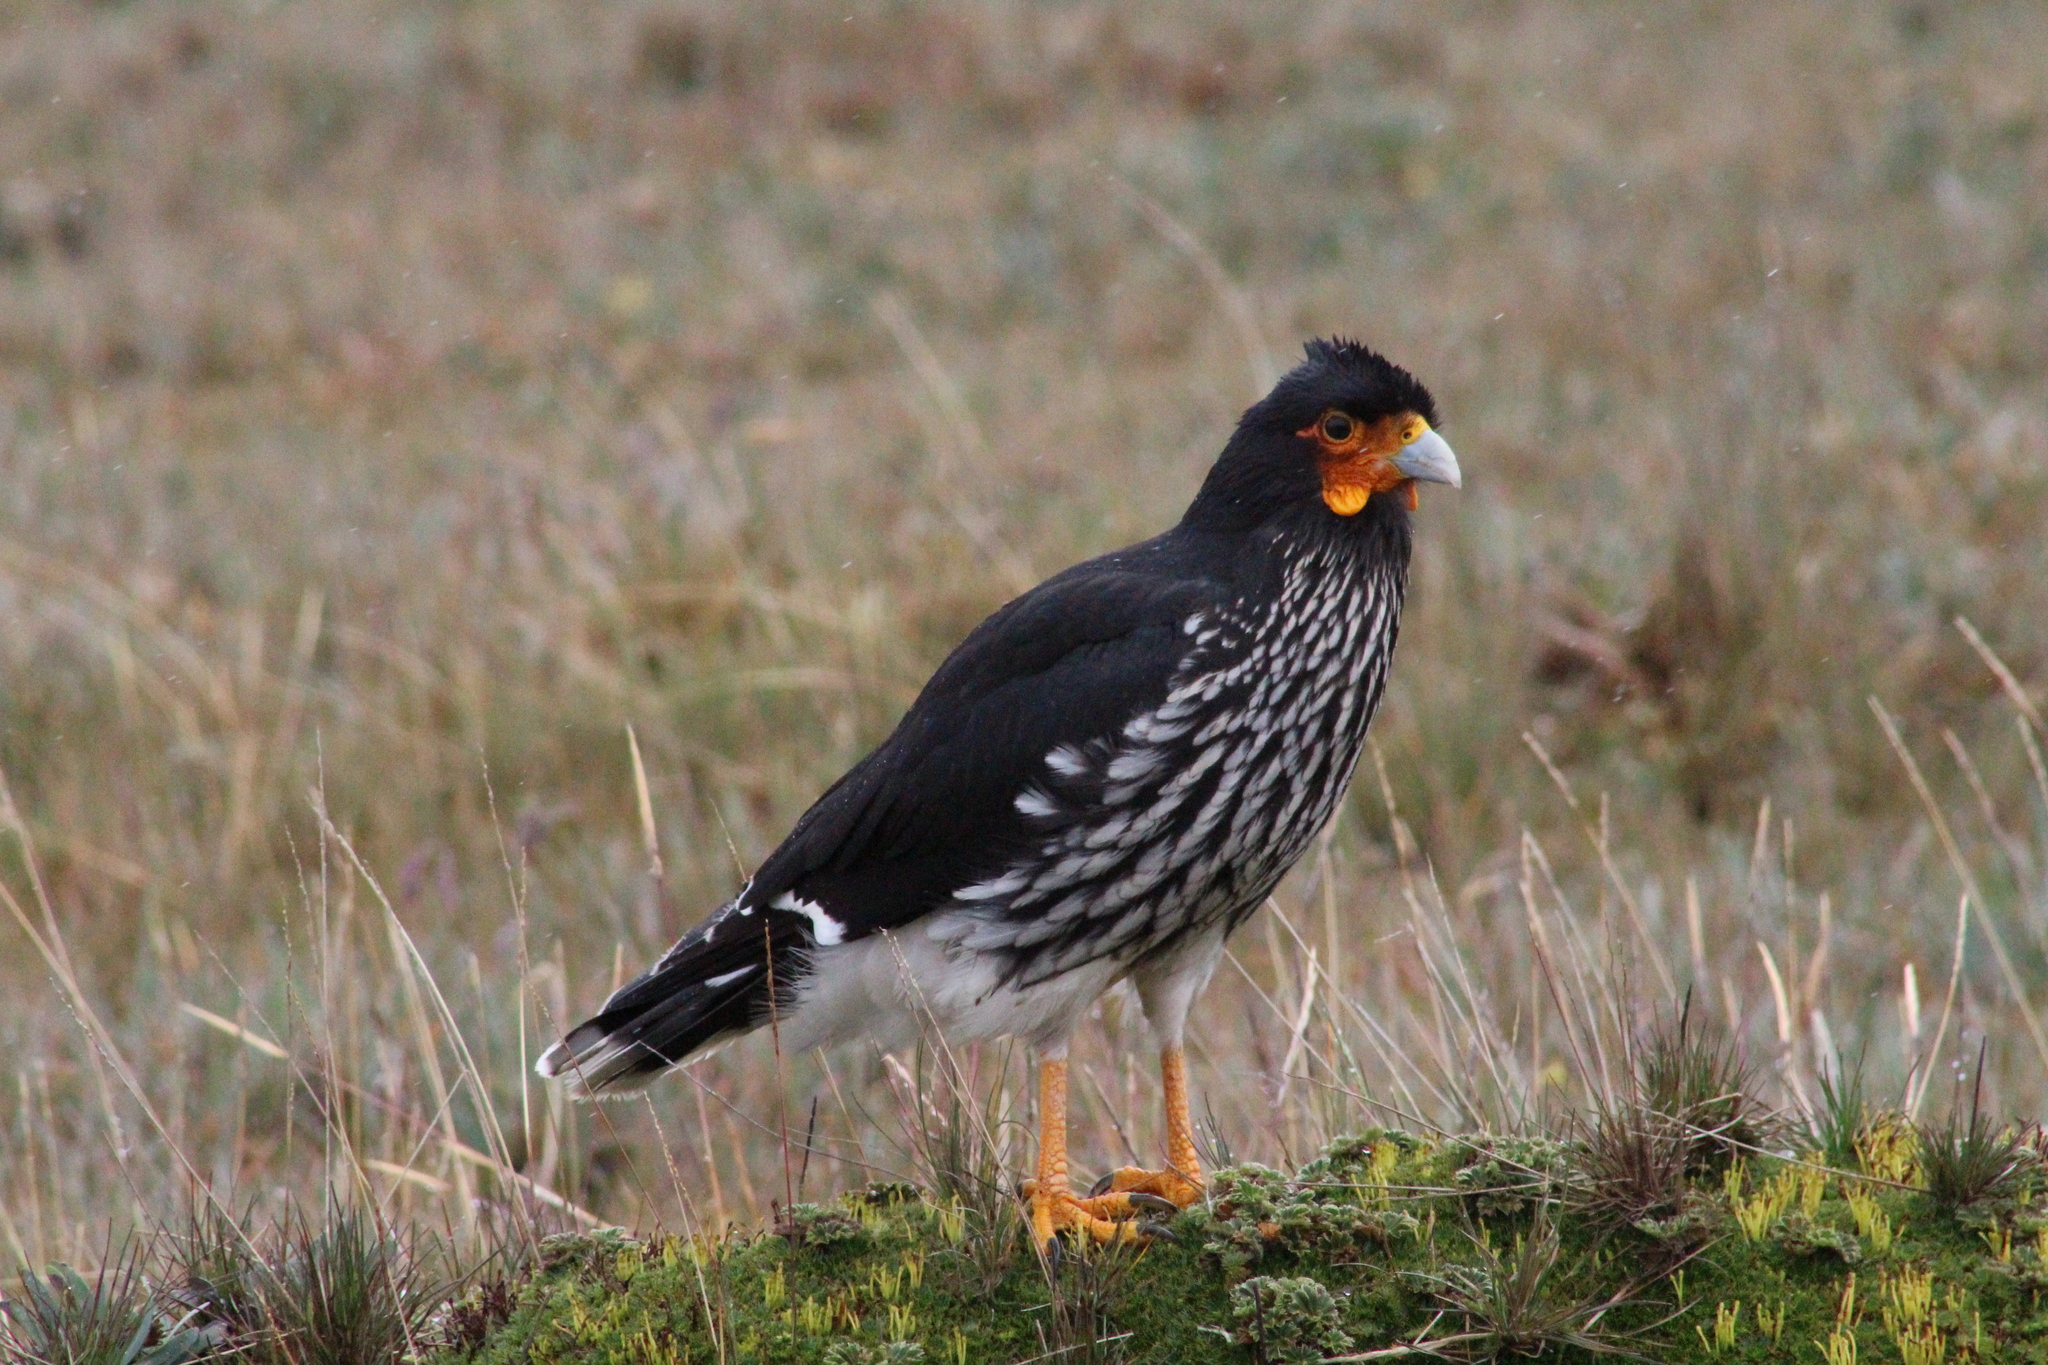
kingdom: Animalia
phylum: Chordata
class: Aves
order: Falconiformes
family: Falconidae
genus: Daptrius
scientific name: Daptrius
